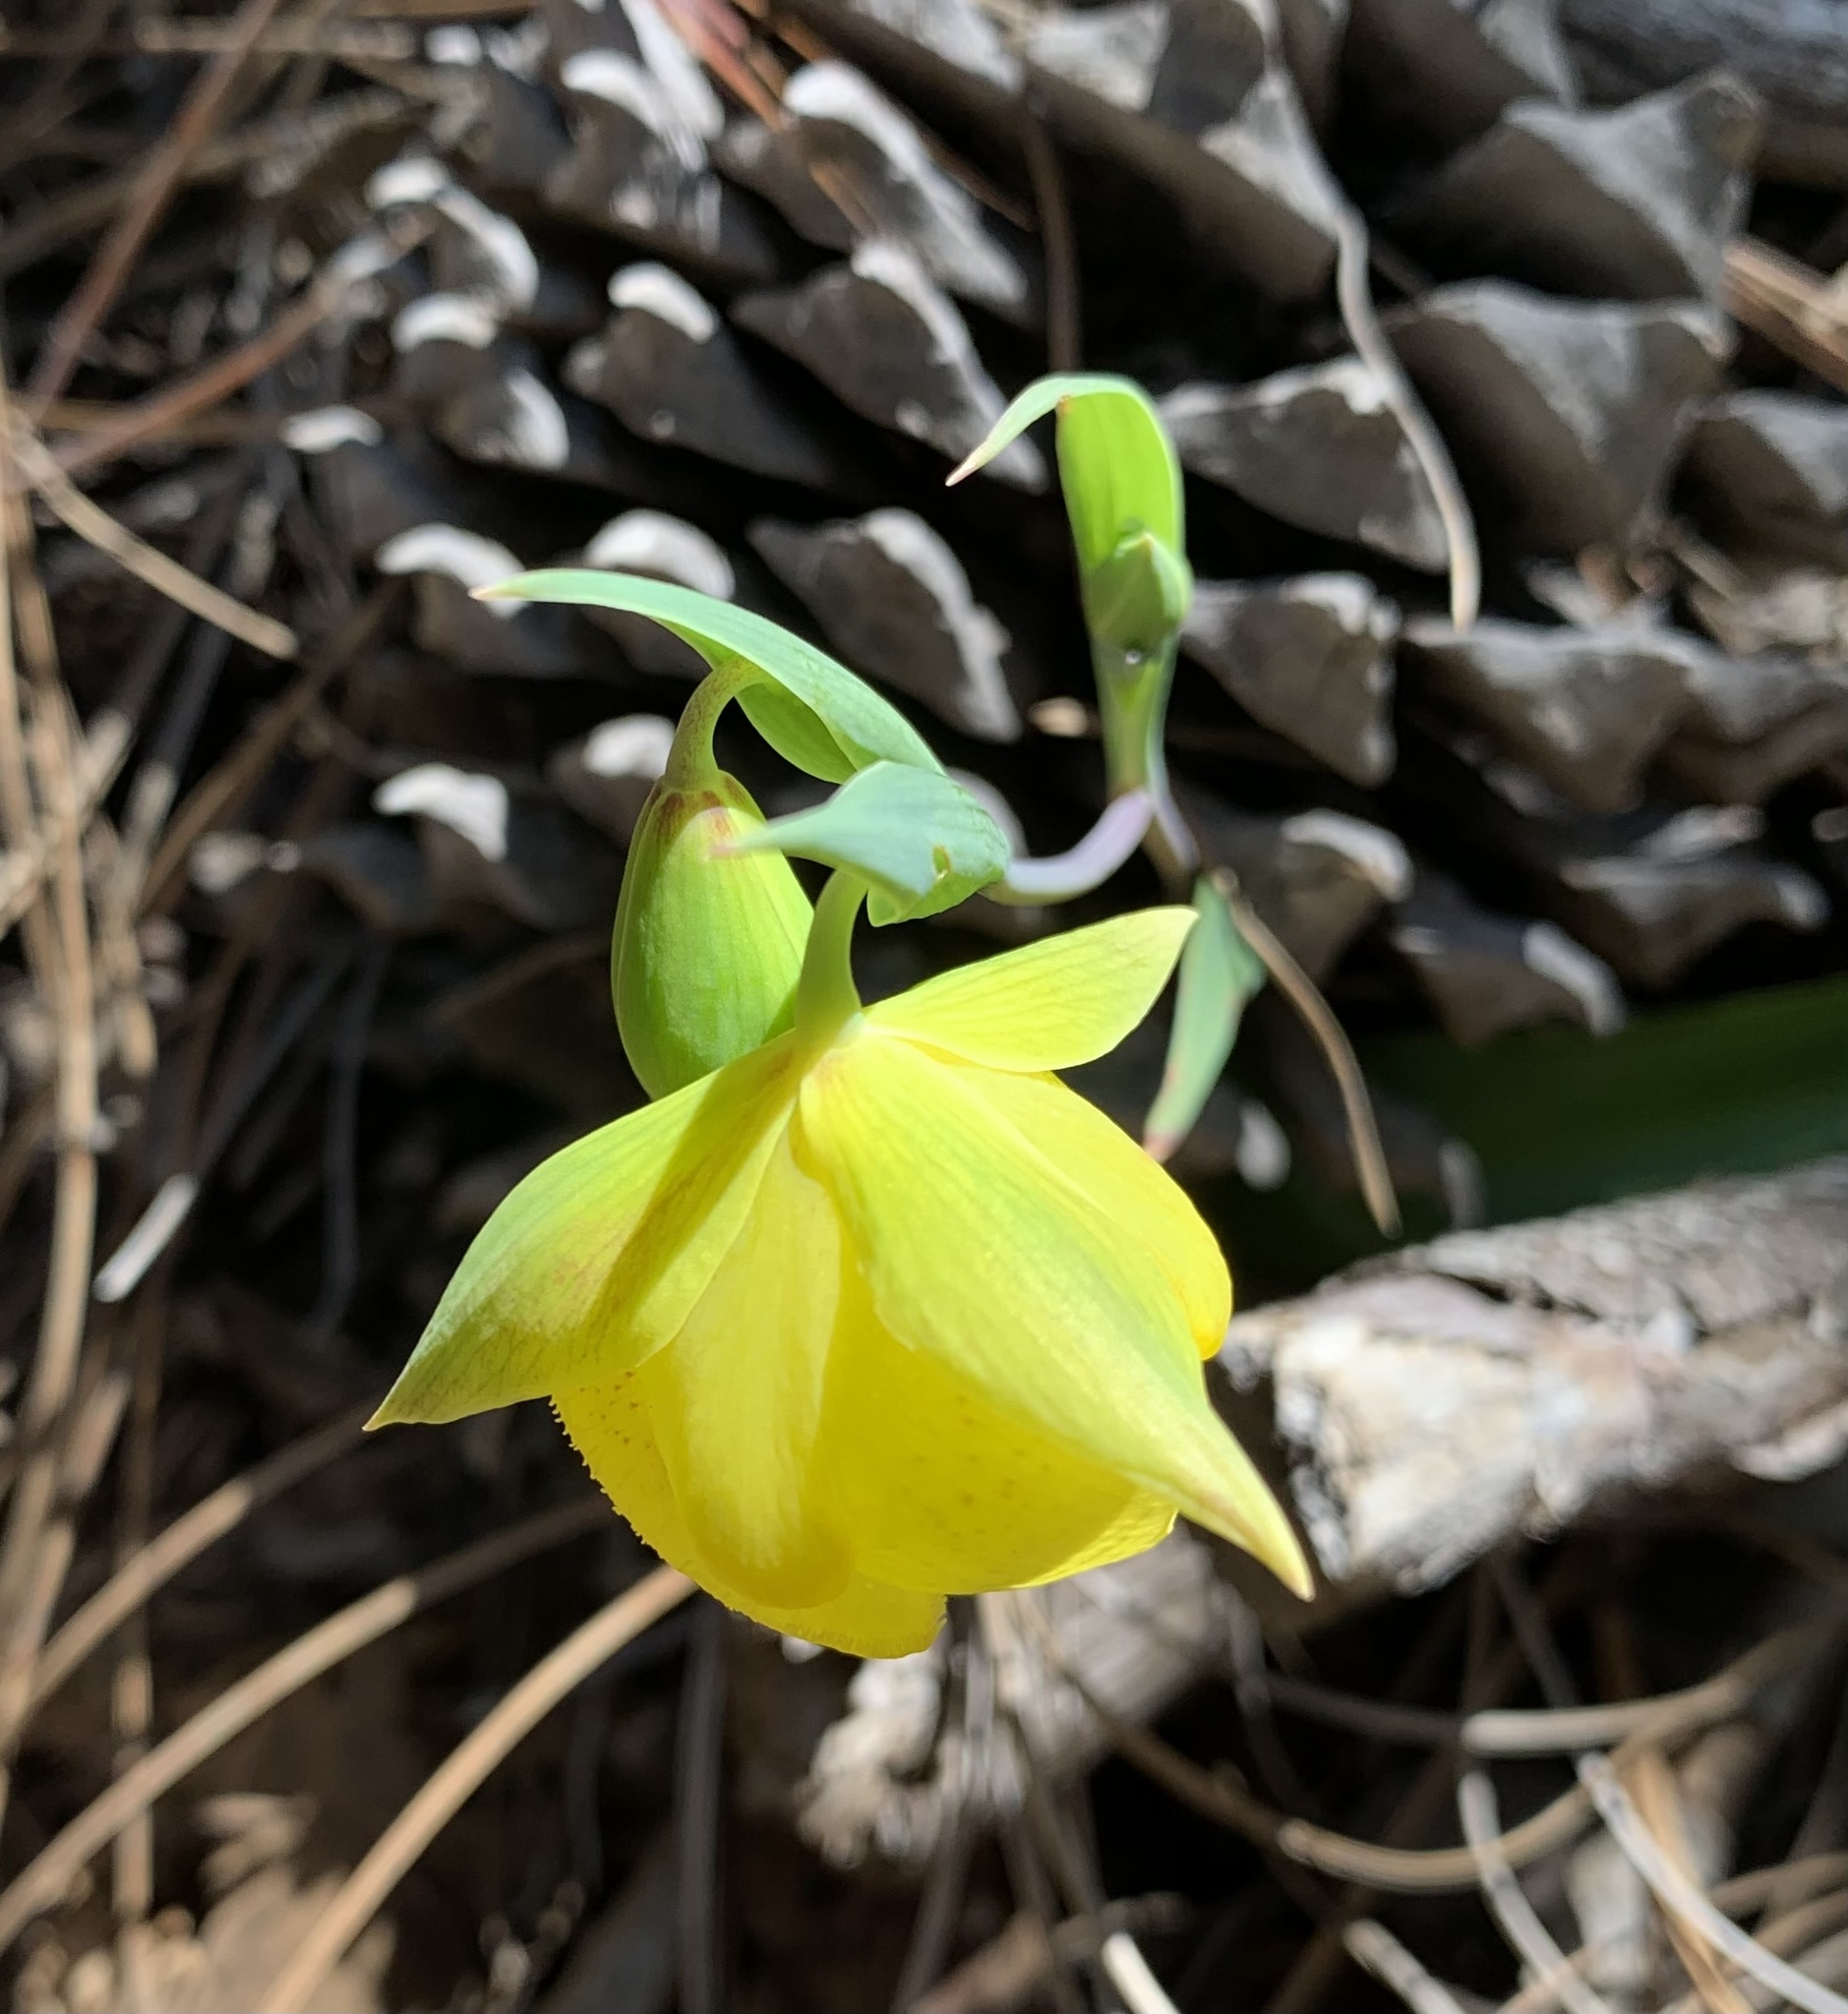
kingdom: Plantae
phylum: Tracheophyta
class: Liliopsida
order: Liliales
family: Liliaceae
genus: Calochortus
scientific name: Calochortus pulchellus
